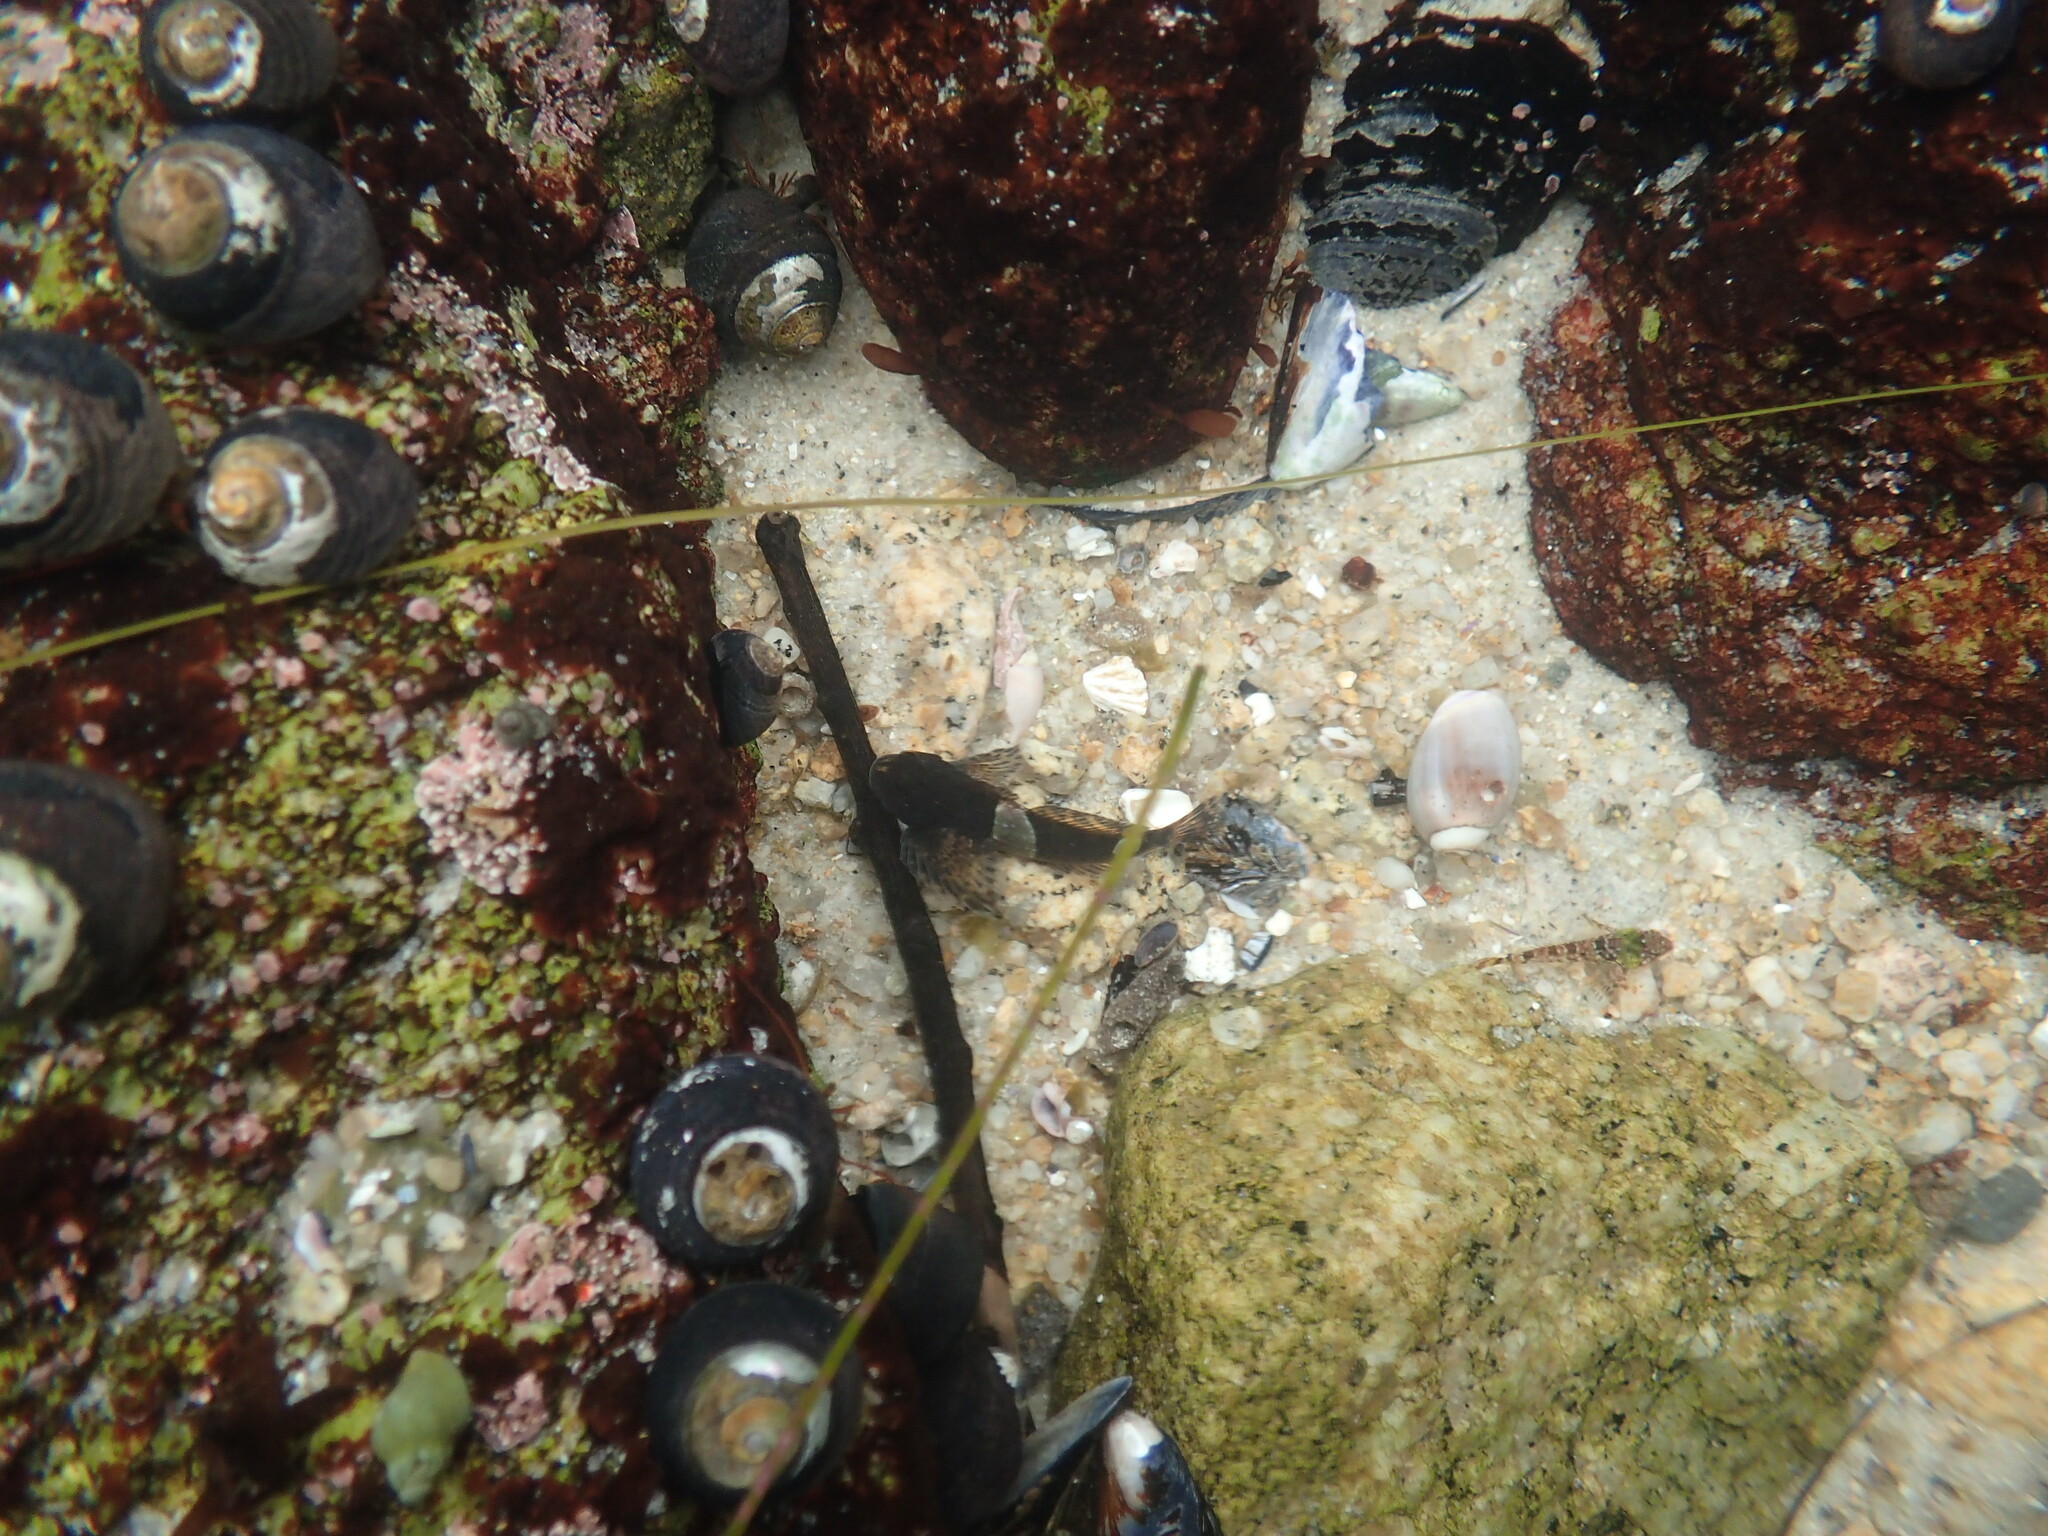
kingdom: Animalia
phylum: Chordata
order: Scorpaeniformes
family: Cottidae
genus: Clinocottus
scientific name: Clinocottus globiceps
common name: Mosshead sculpin
